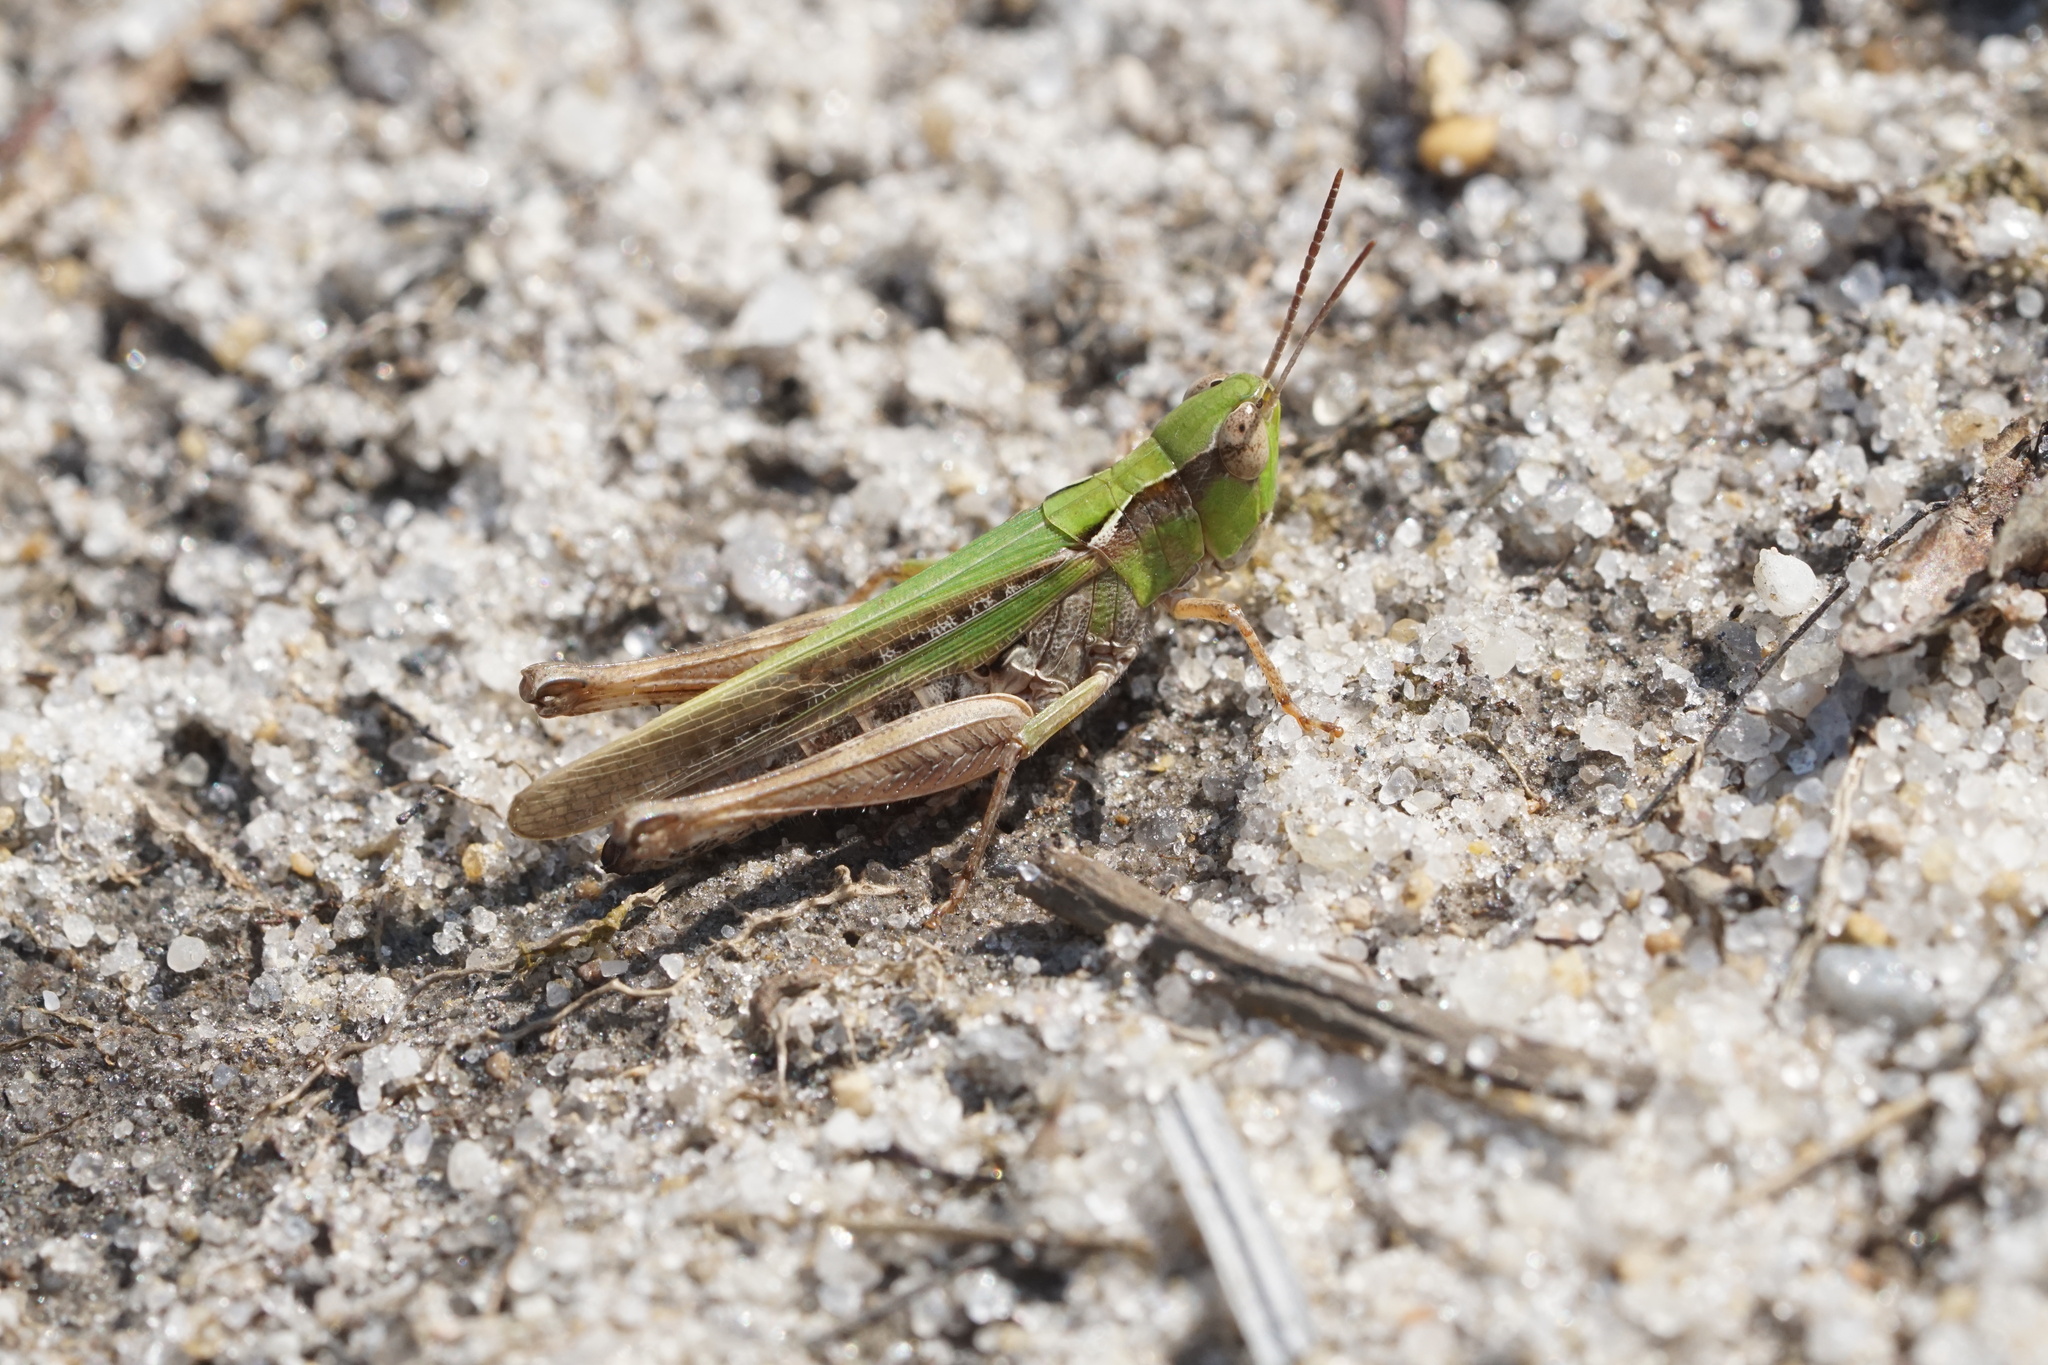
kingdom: Animalia
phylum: Arthropoda
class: Insecta
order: Orthoptera
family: Acrididae
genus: Orphulella
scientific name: Orphulella pelidna
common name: Spotted-wing grasshopper
